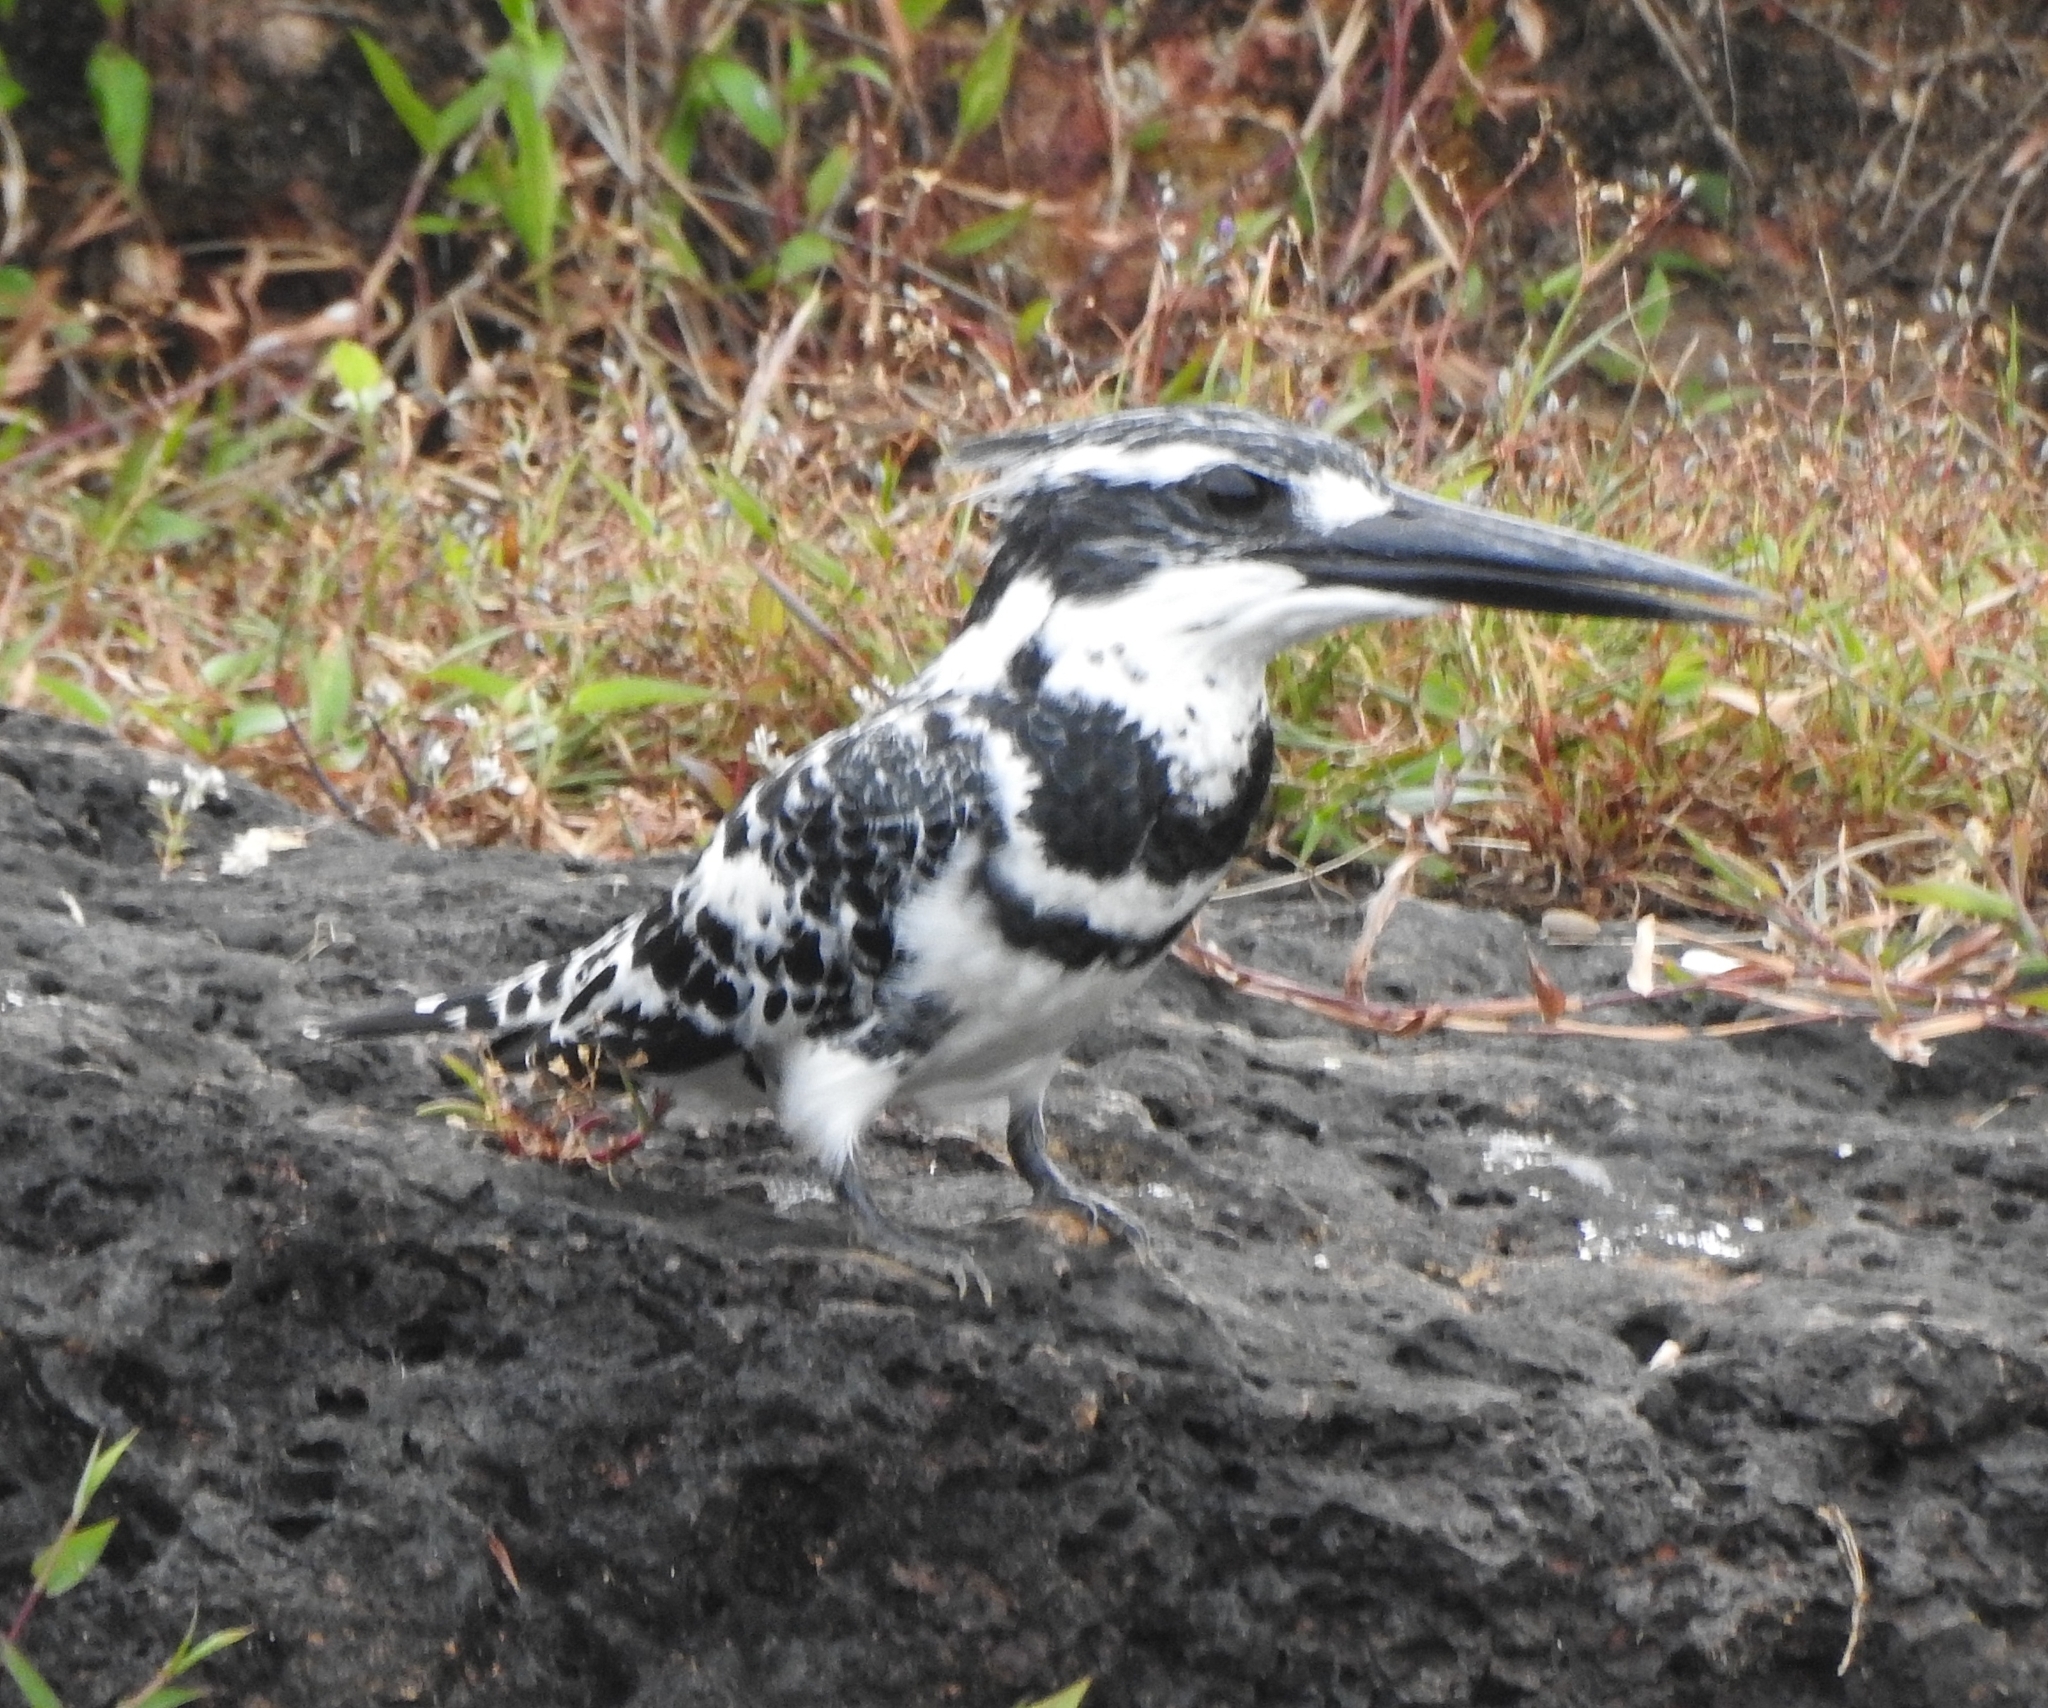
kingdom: Animalia
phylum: Chordata
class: Aves
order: Coraciiformes
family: Alcedinidae
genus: Ceryle
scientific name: Ceryle rudis
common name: Pied kingfisher
